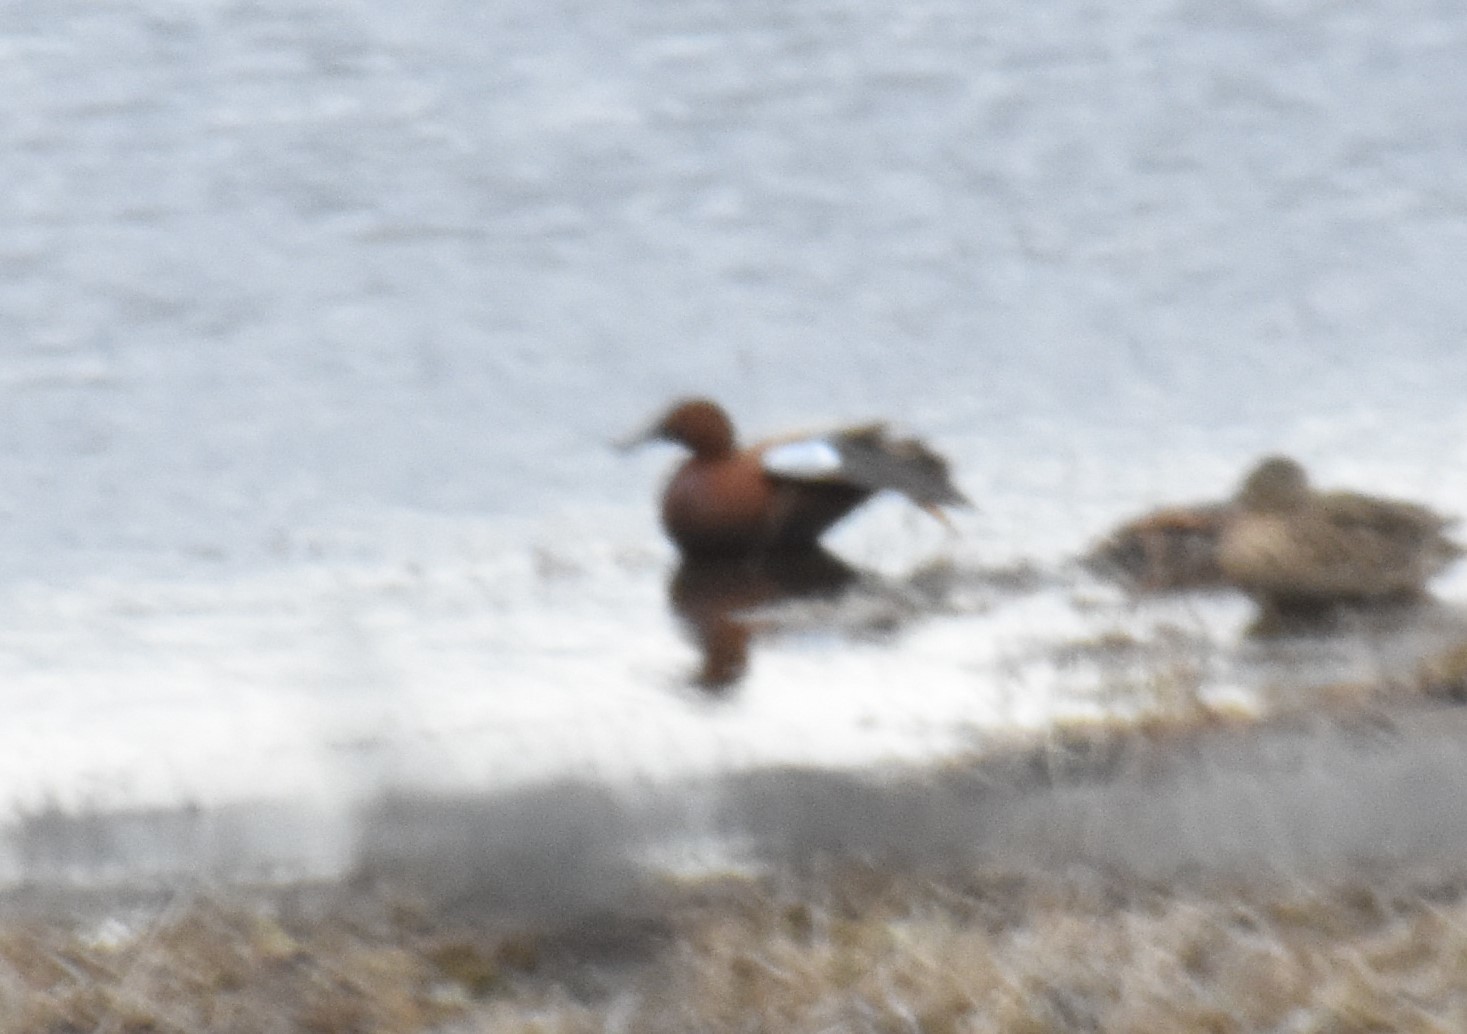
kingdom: Animalia
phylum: Chordata
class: Aves
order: Anseriformes
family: Anatidae
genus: Spatula
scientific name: Spatula cyanoptera
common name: Cinnamon teal
